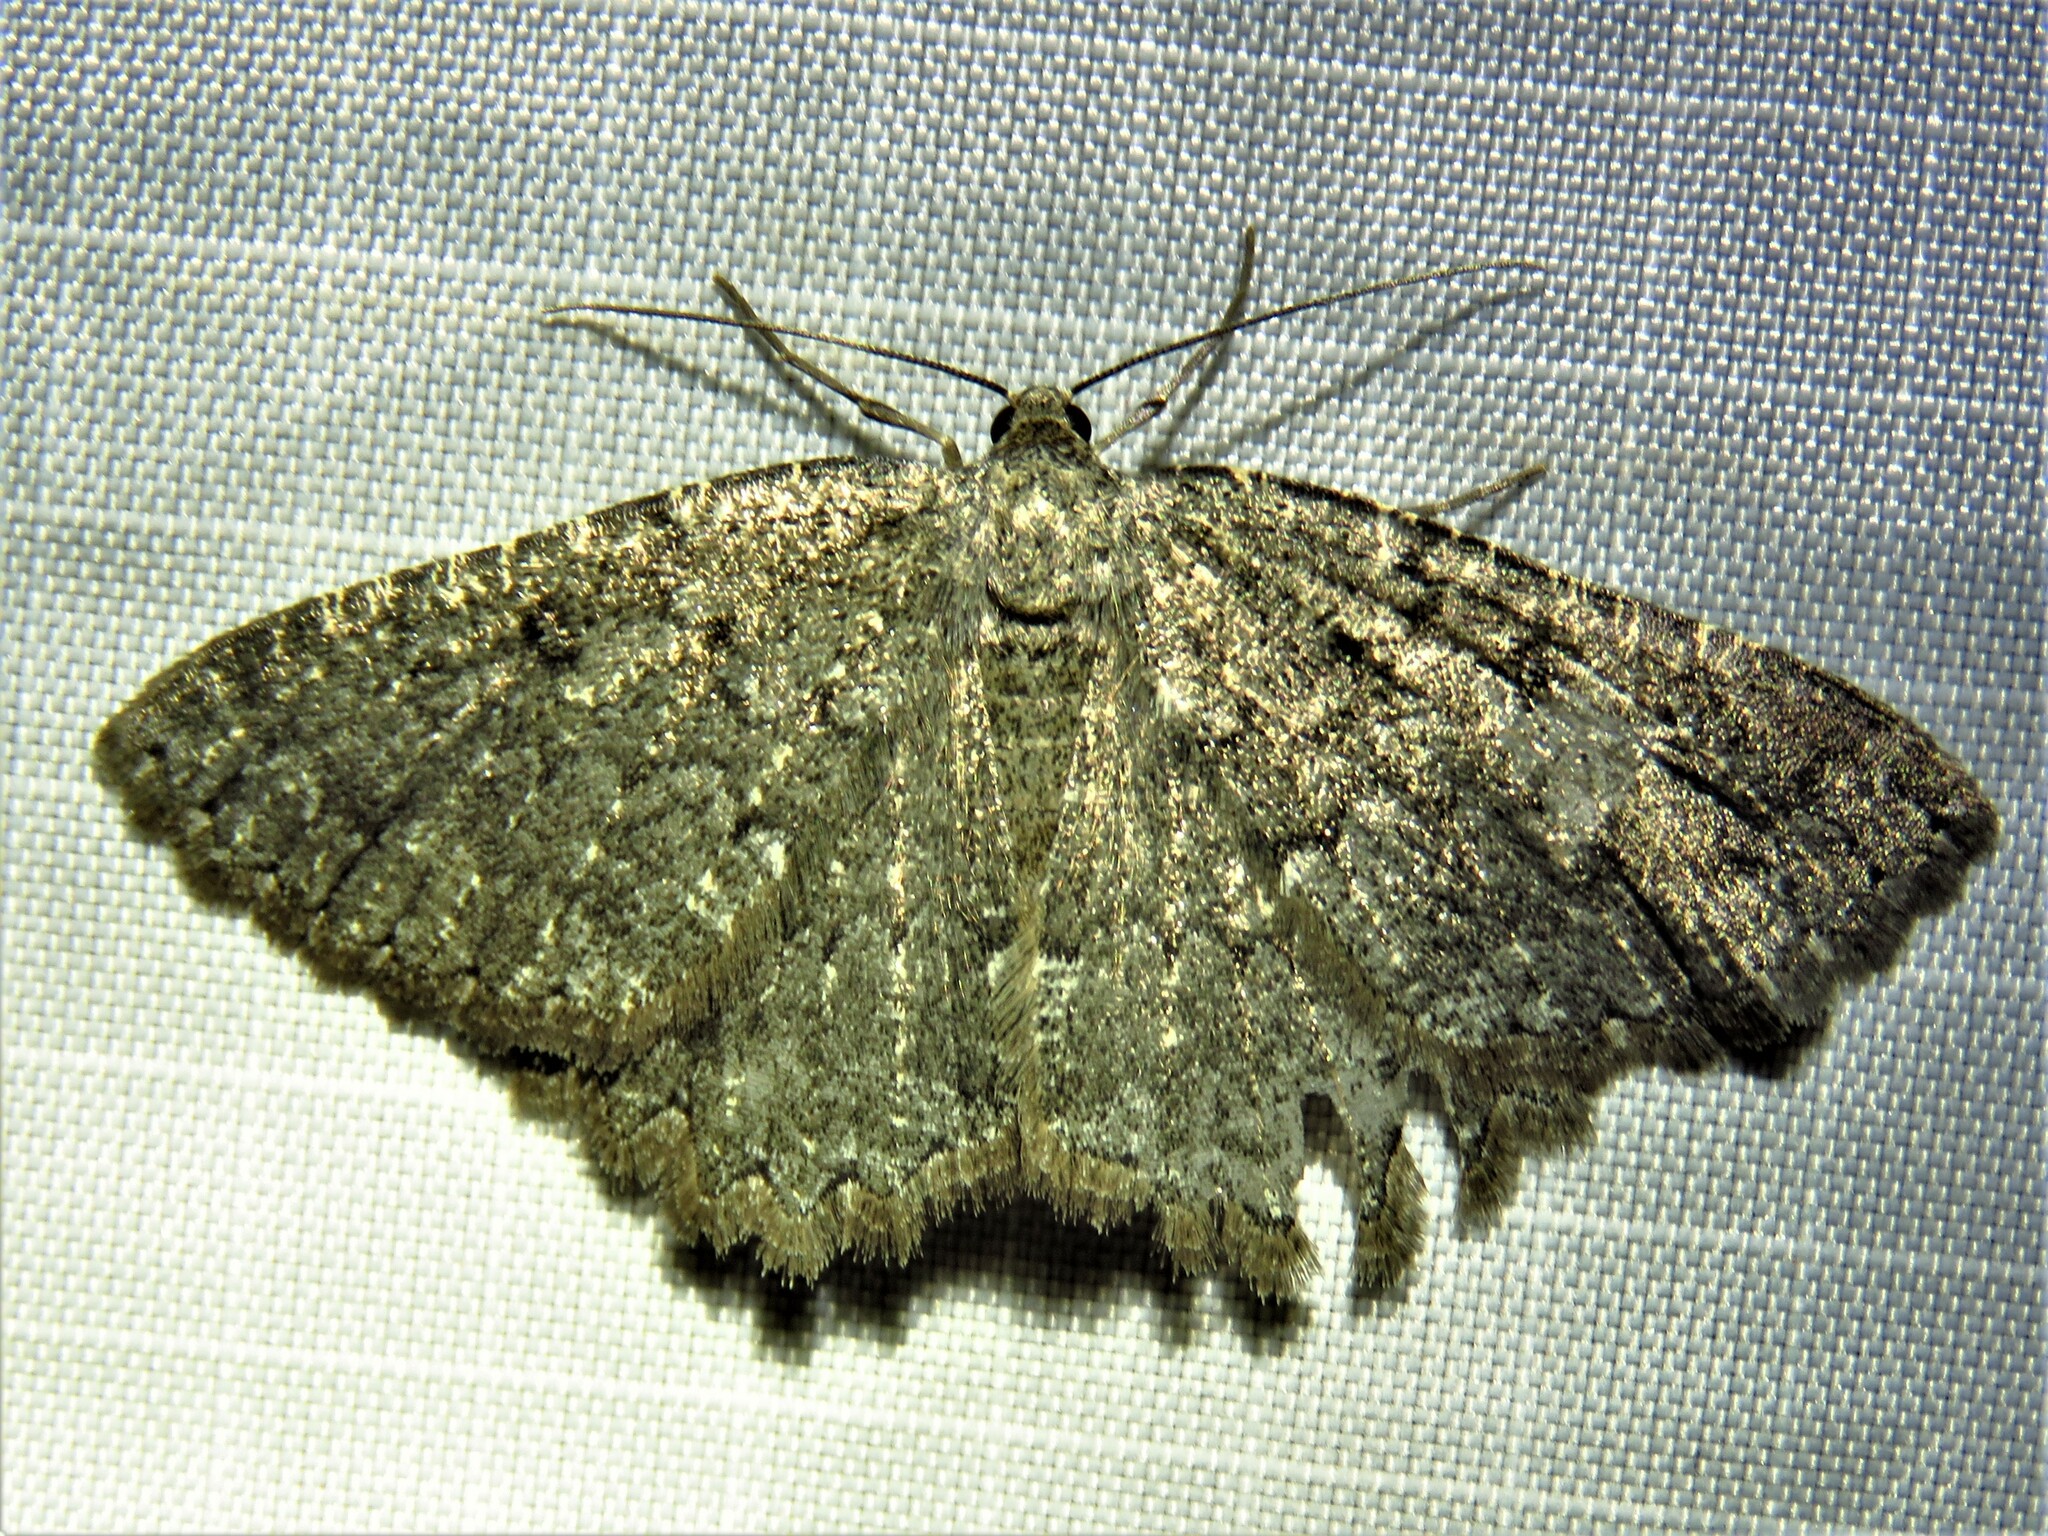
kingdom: Animalia
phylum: Arthropoda
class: Insecta
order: Lepidoptera
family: Geometridae
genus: Charissa
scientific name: Charissa obscurata
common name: Annulet
